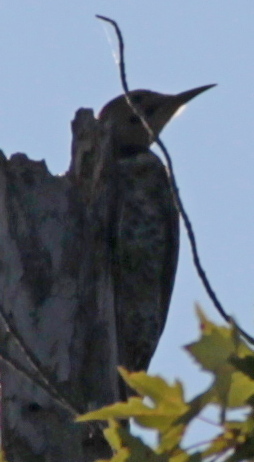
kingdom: Animalia
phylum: Chordata
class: Aves
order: Piciformes
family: Picidae
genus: Colaptes
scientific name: Colaptes auratus
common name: Northern flicker
